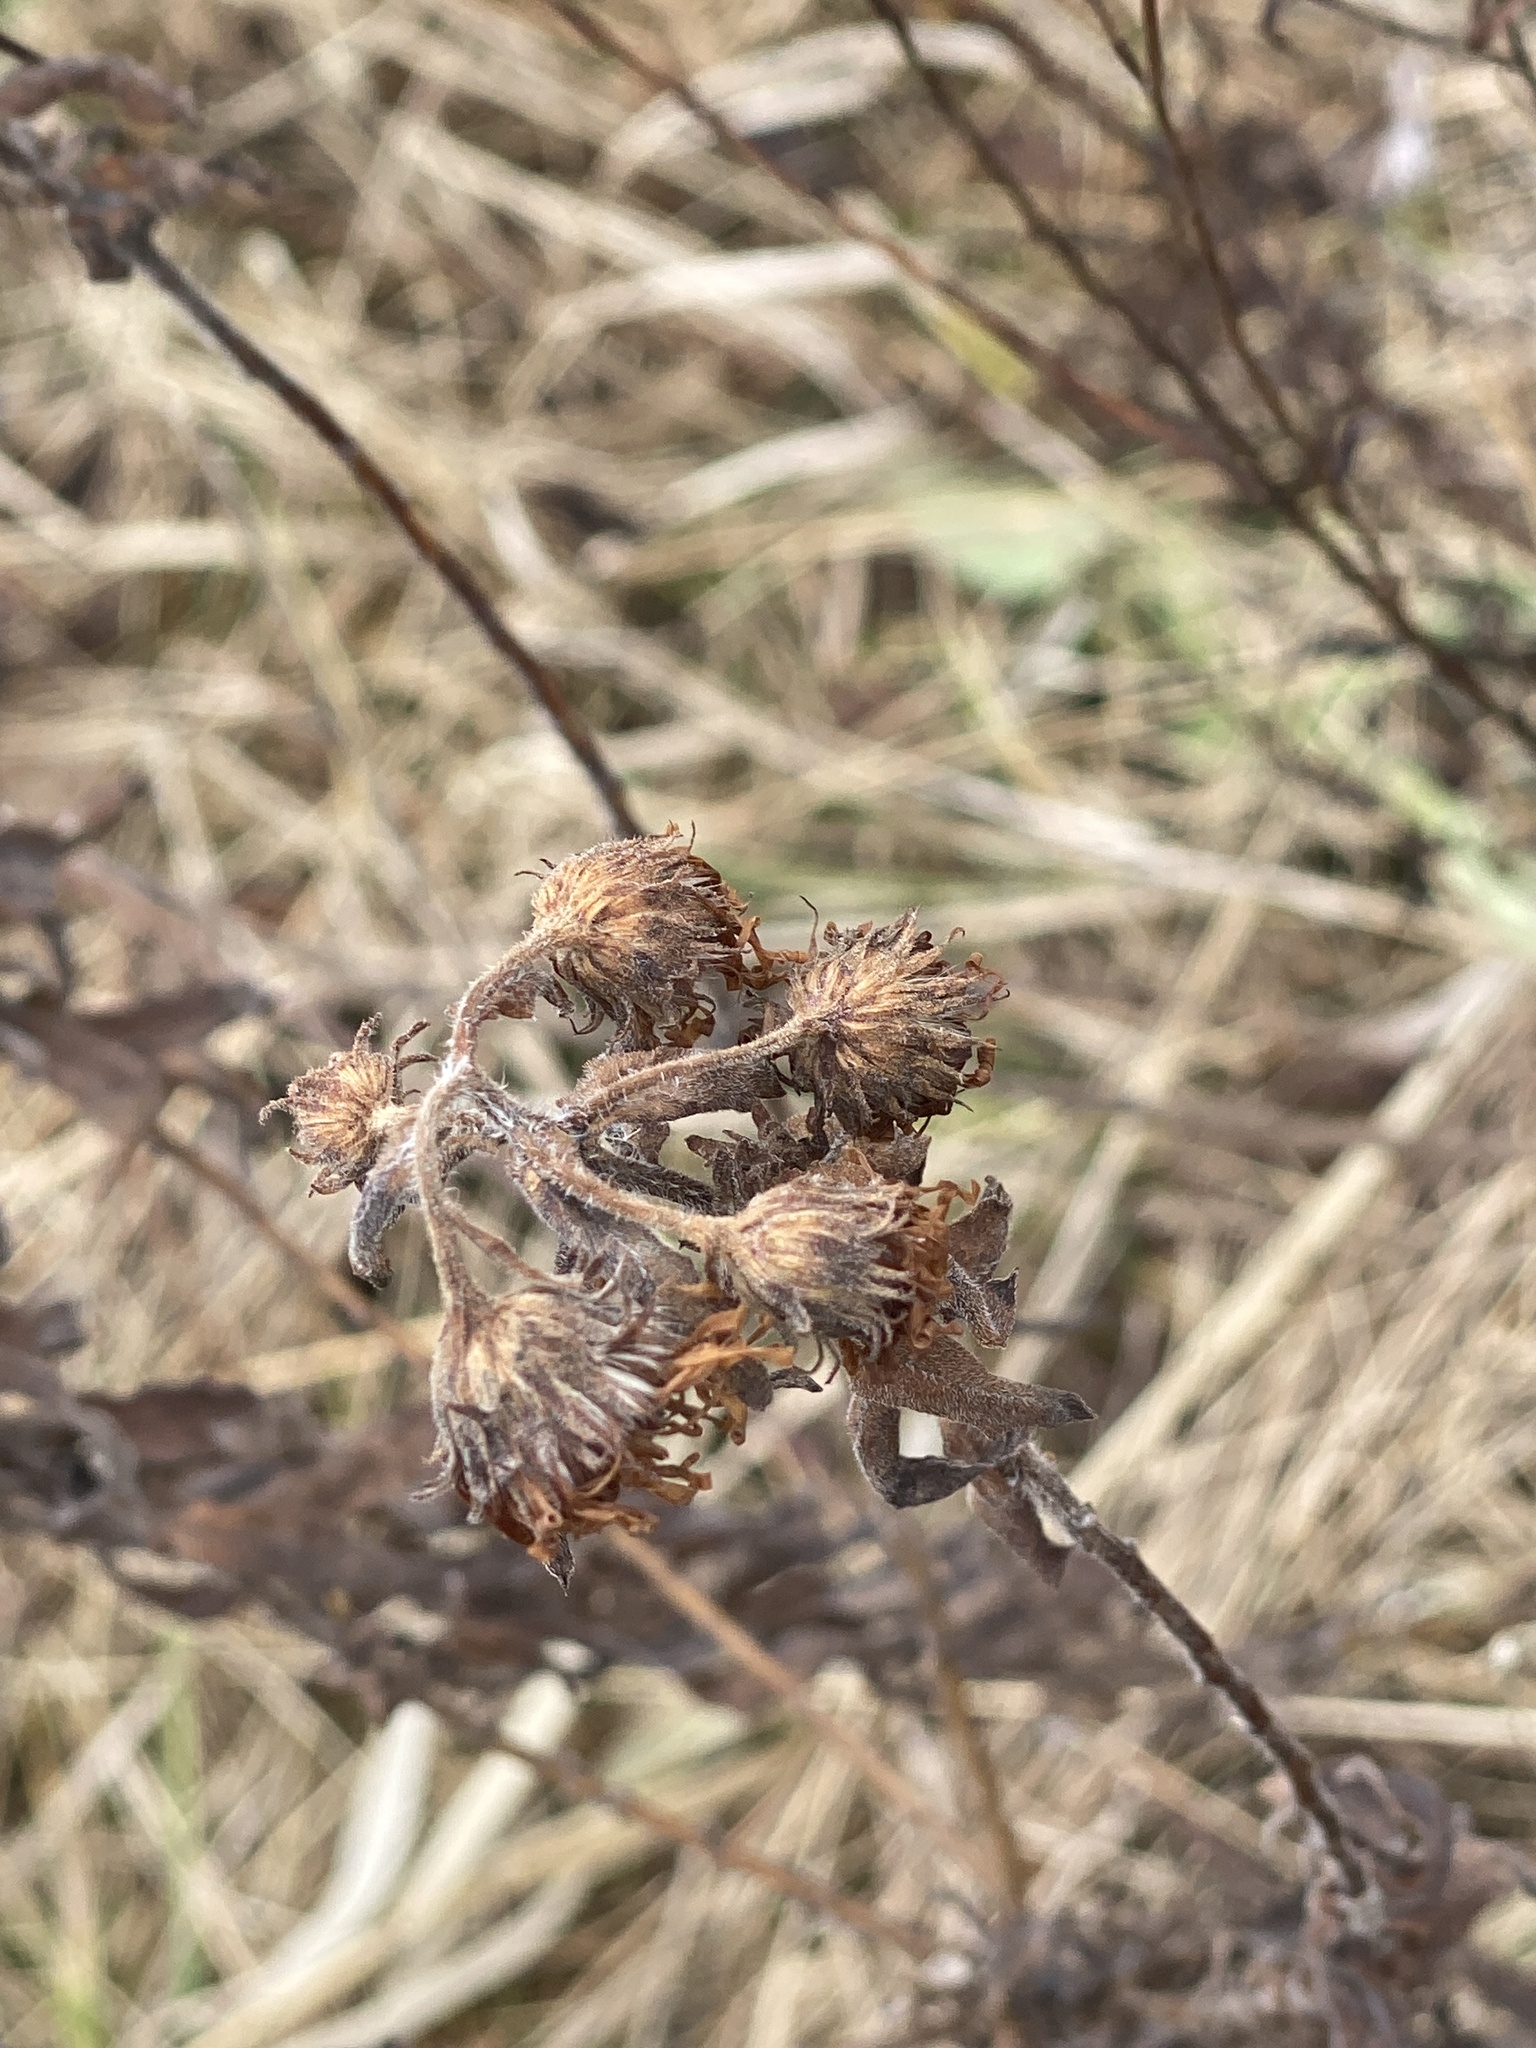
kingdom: Plantae
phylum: Tracheophyta
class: Magnoliopsida
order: Asterales
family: Asteraceae
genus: Symphyotrichum
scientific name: Symphyotrichum novae-angliae
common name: Michaelmas daisy
